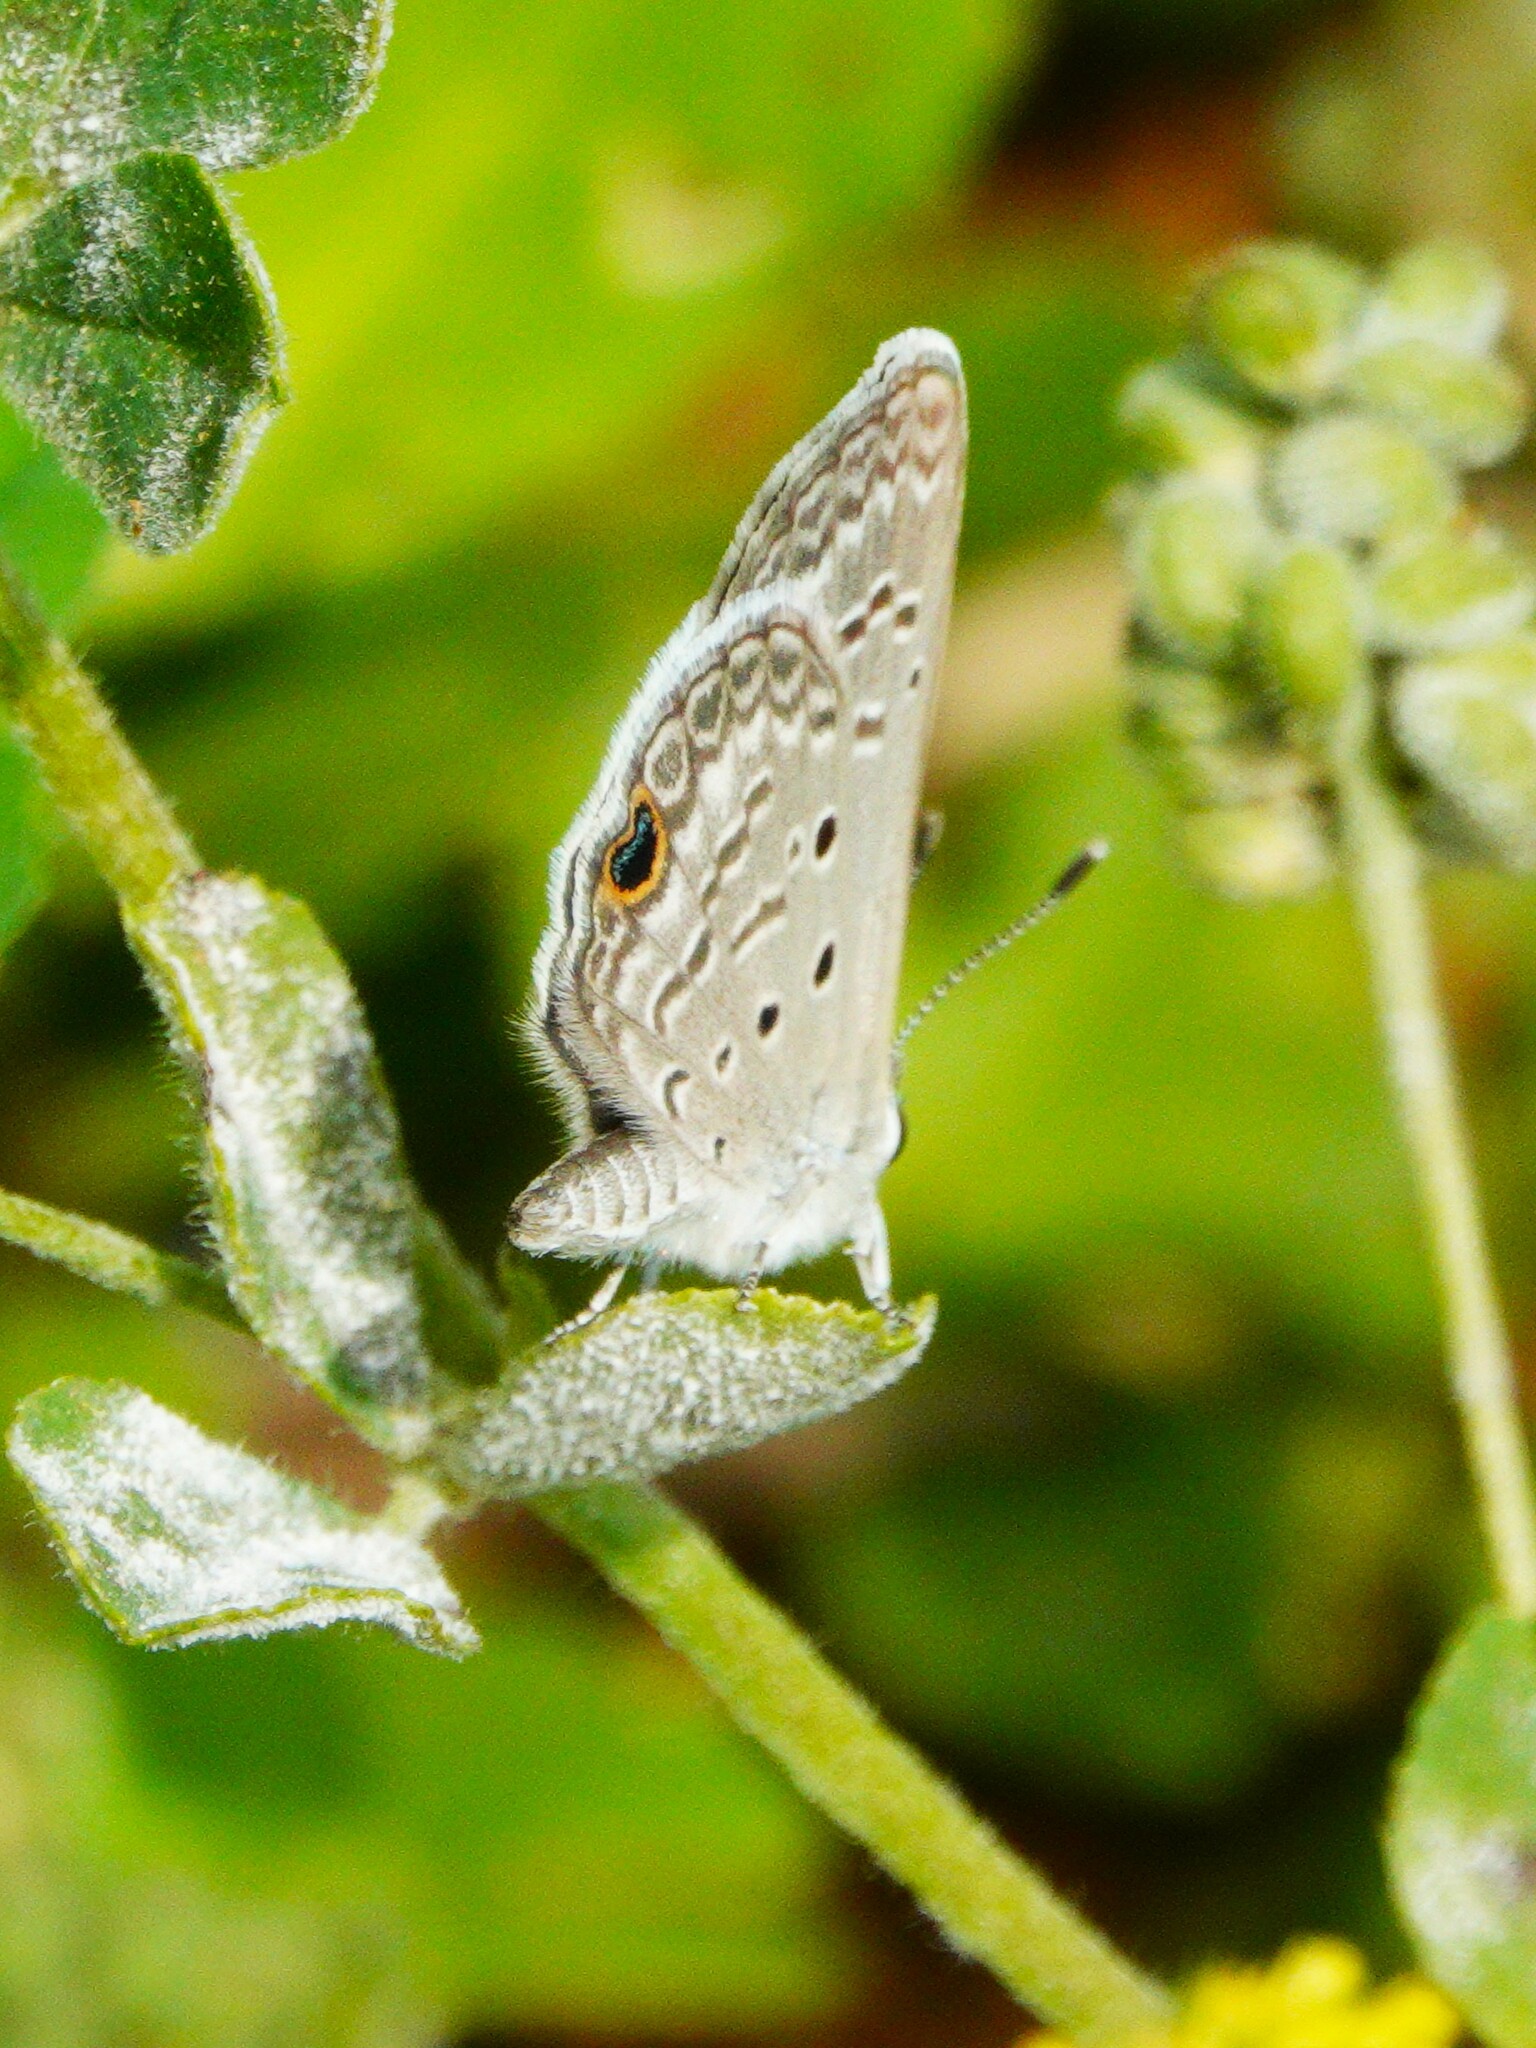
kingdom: Animalia
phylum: Arthropoda
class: Insecta
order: Lepidoptera
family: Lycaenidae
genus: Hemiargus
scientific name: Hemiargus ceraunus
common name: Ceraunus blue
